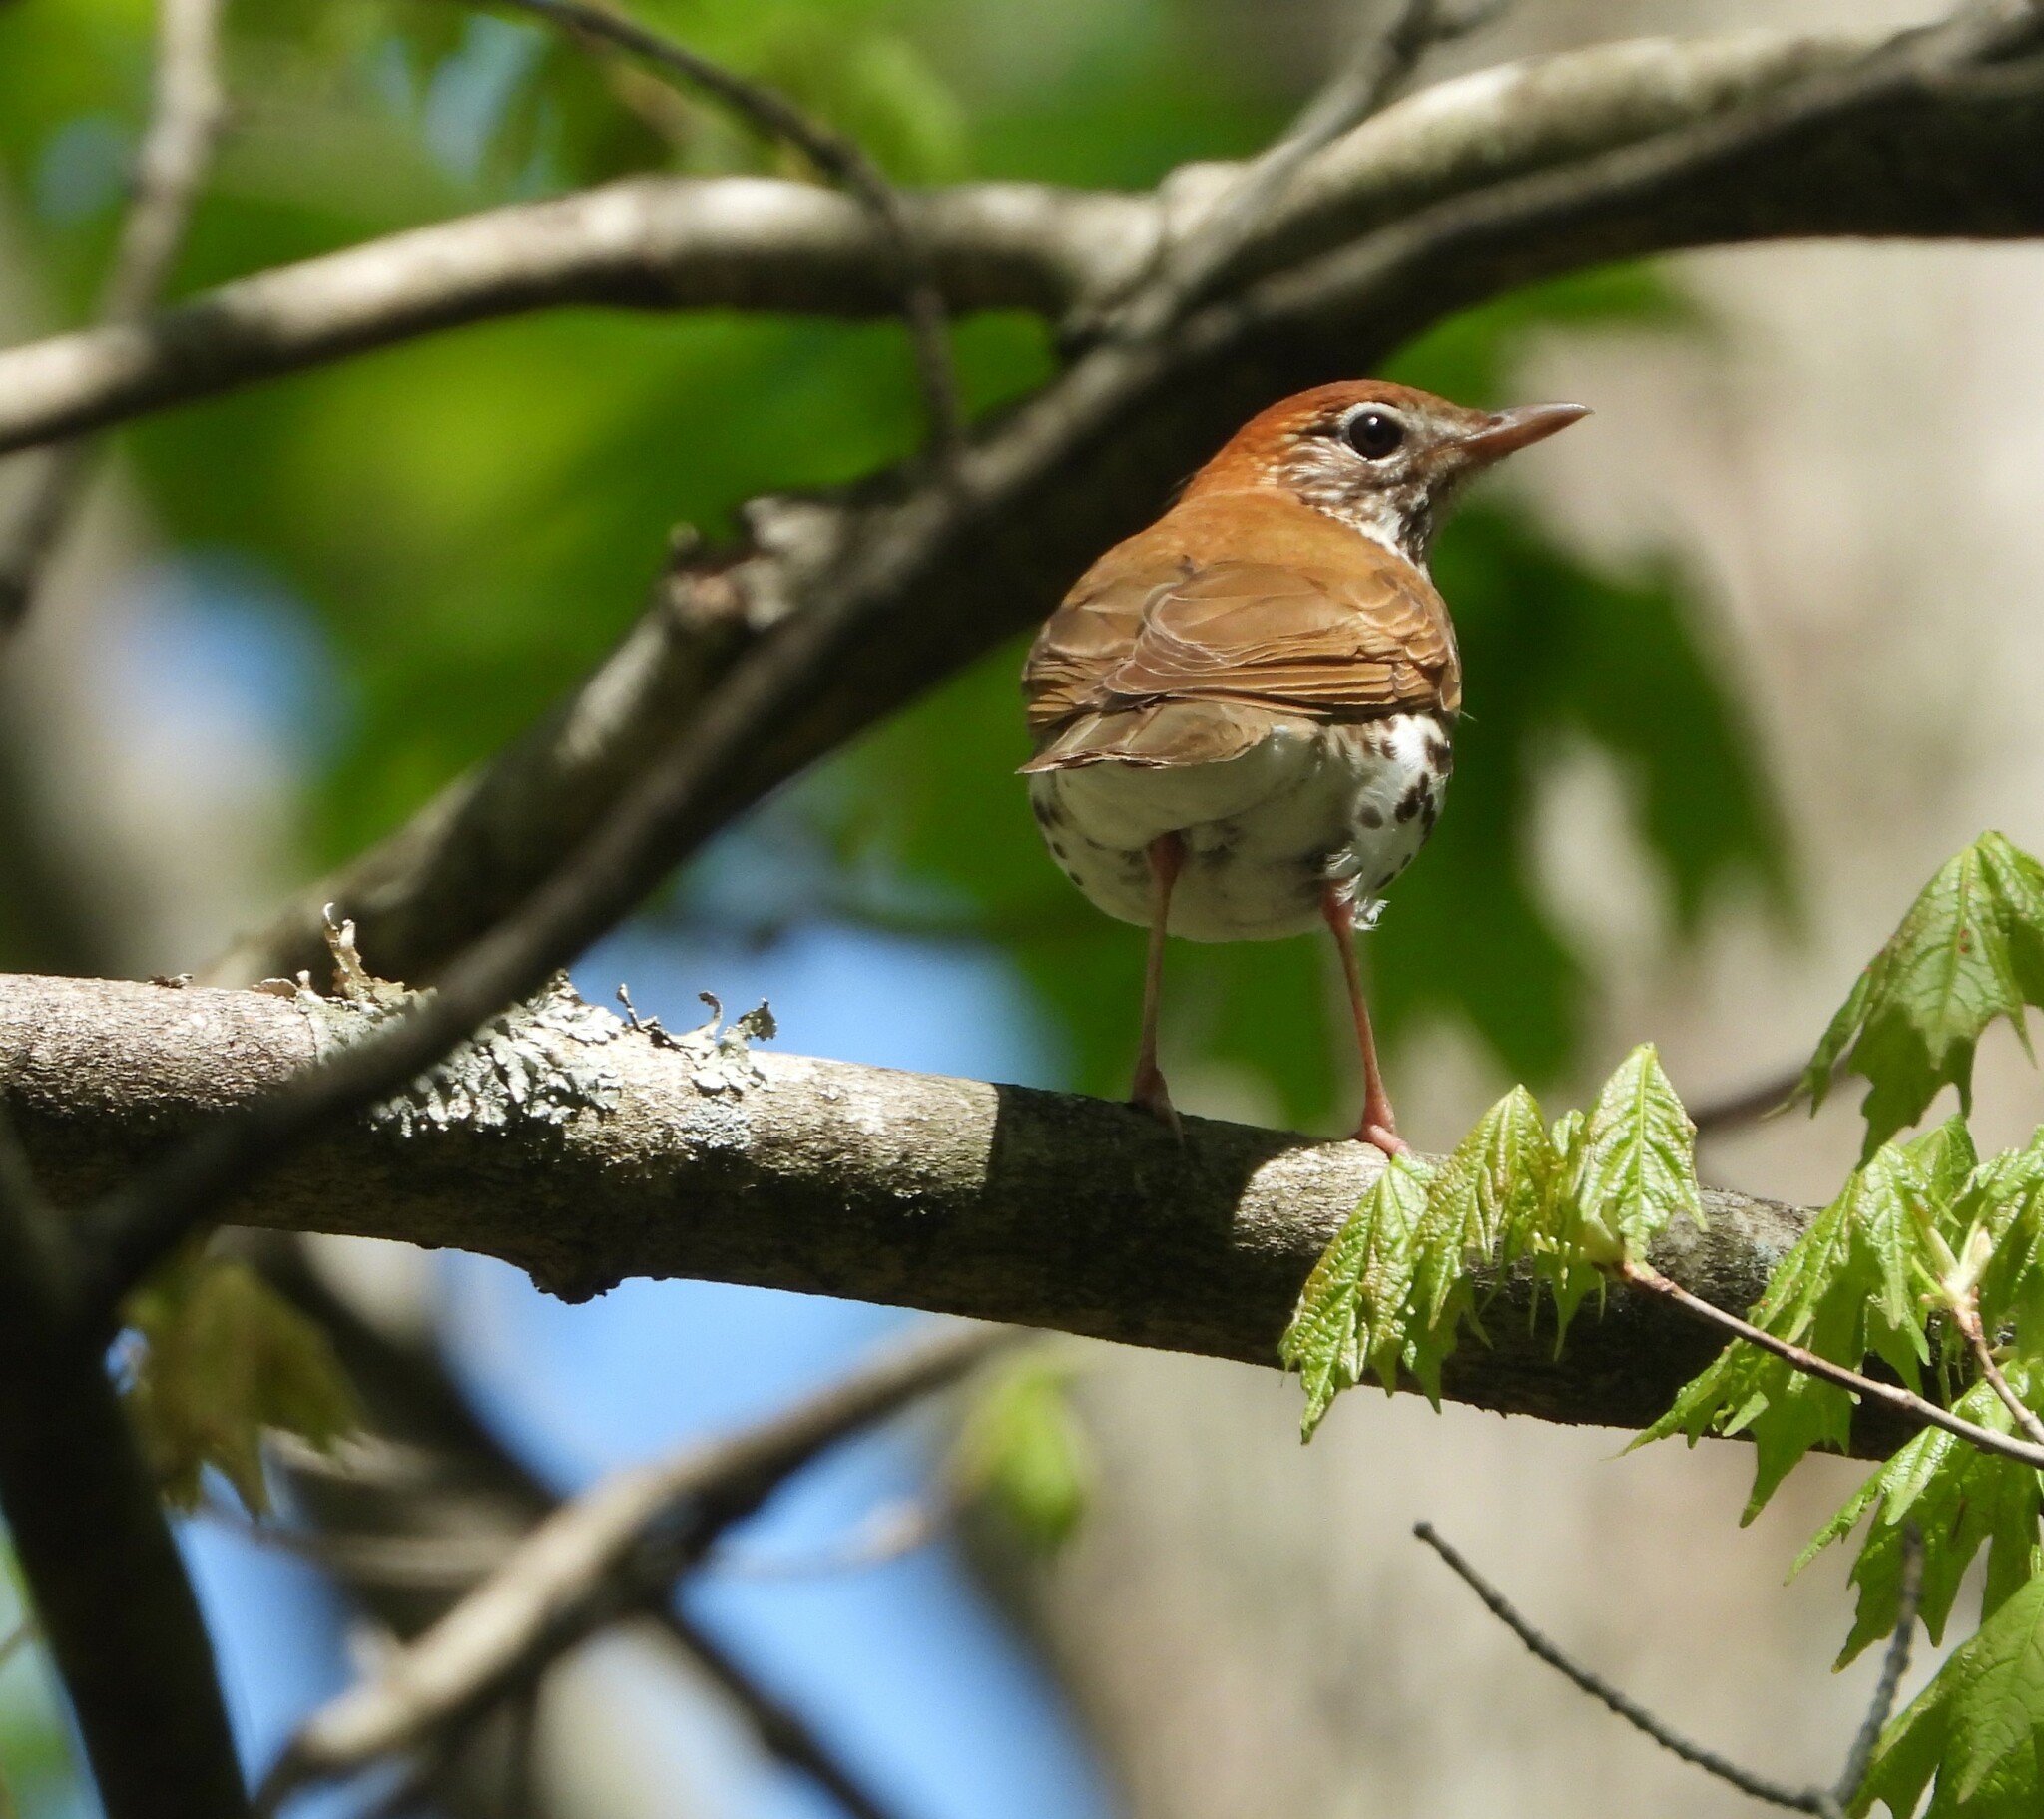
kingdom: Animalia
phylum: Chordata
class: Aves
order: Passeriformes
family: Turdidae
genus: Hylocichla
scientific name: Hylocichla mustelina
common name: Wood thrush
